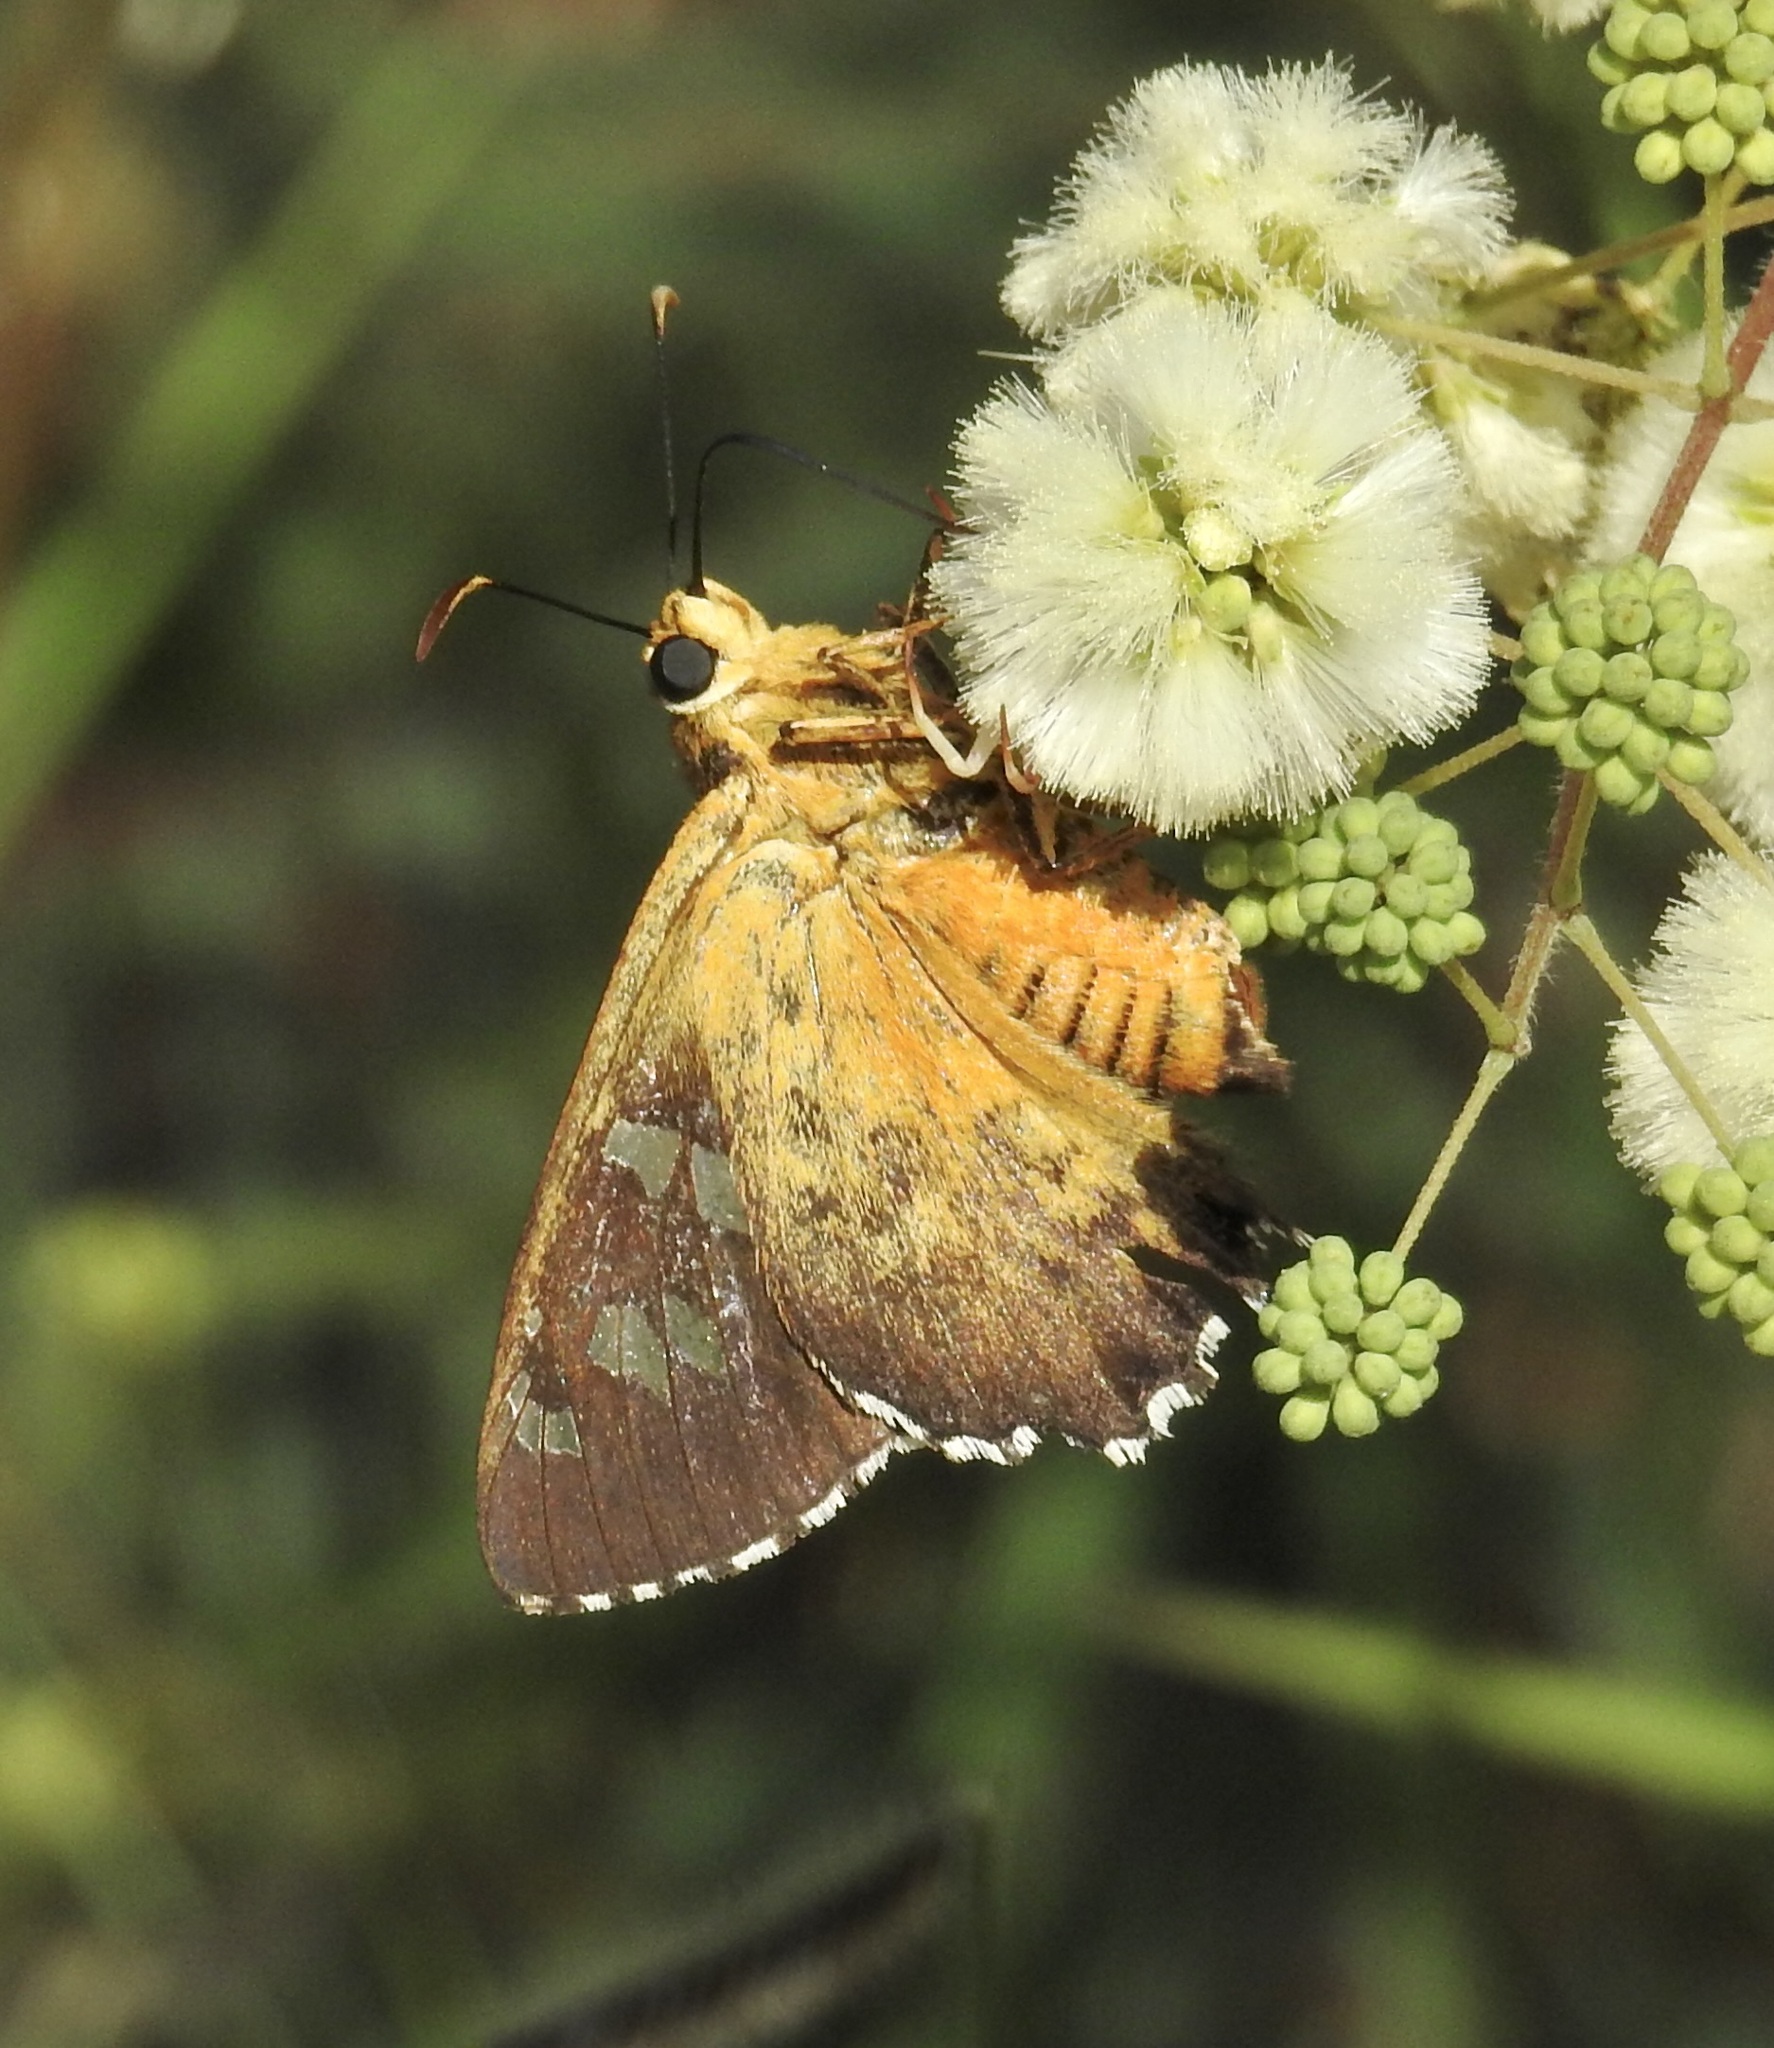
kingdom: Animalia
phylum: Arthropoda
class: Insecta
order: Lepidoptera
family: Hesperiidae
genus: Pyrrhopyge
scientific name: Pyrrhopyge araxes
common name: Dull firetip
